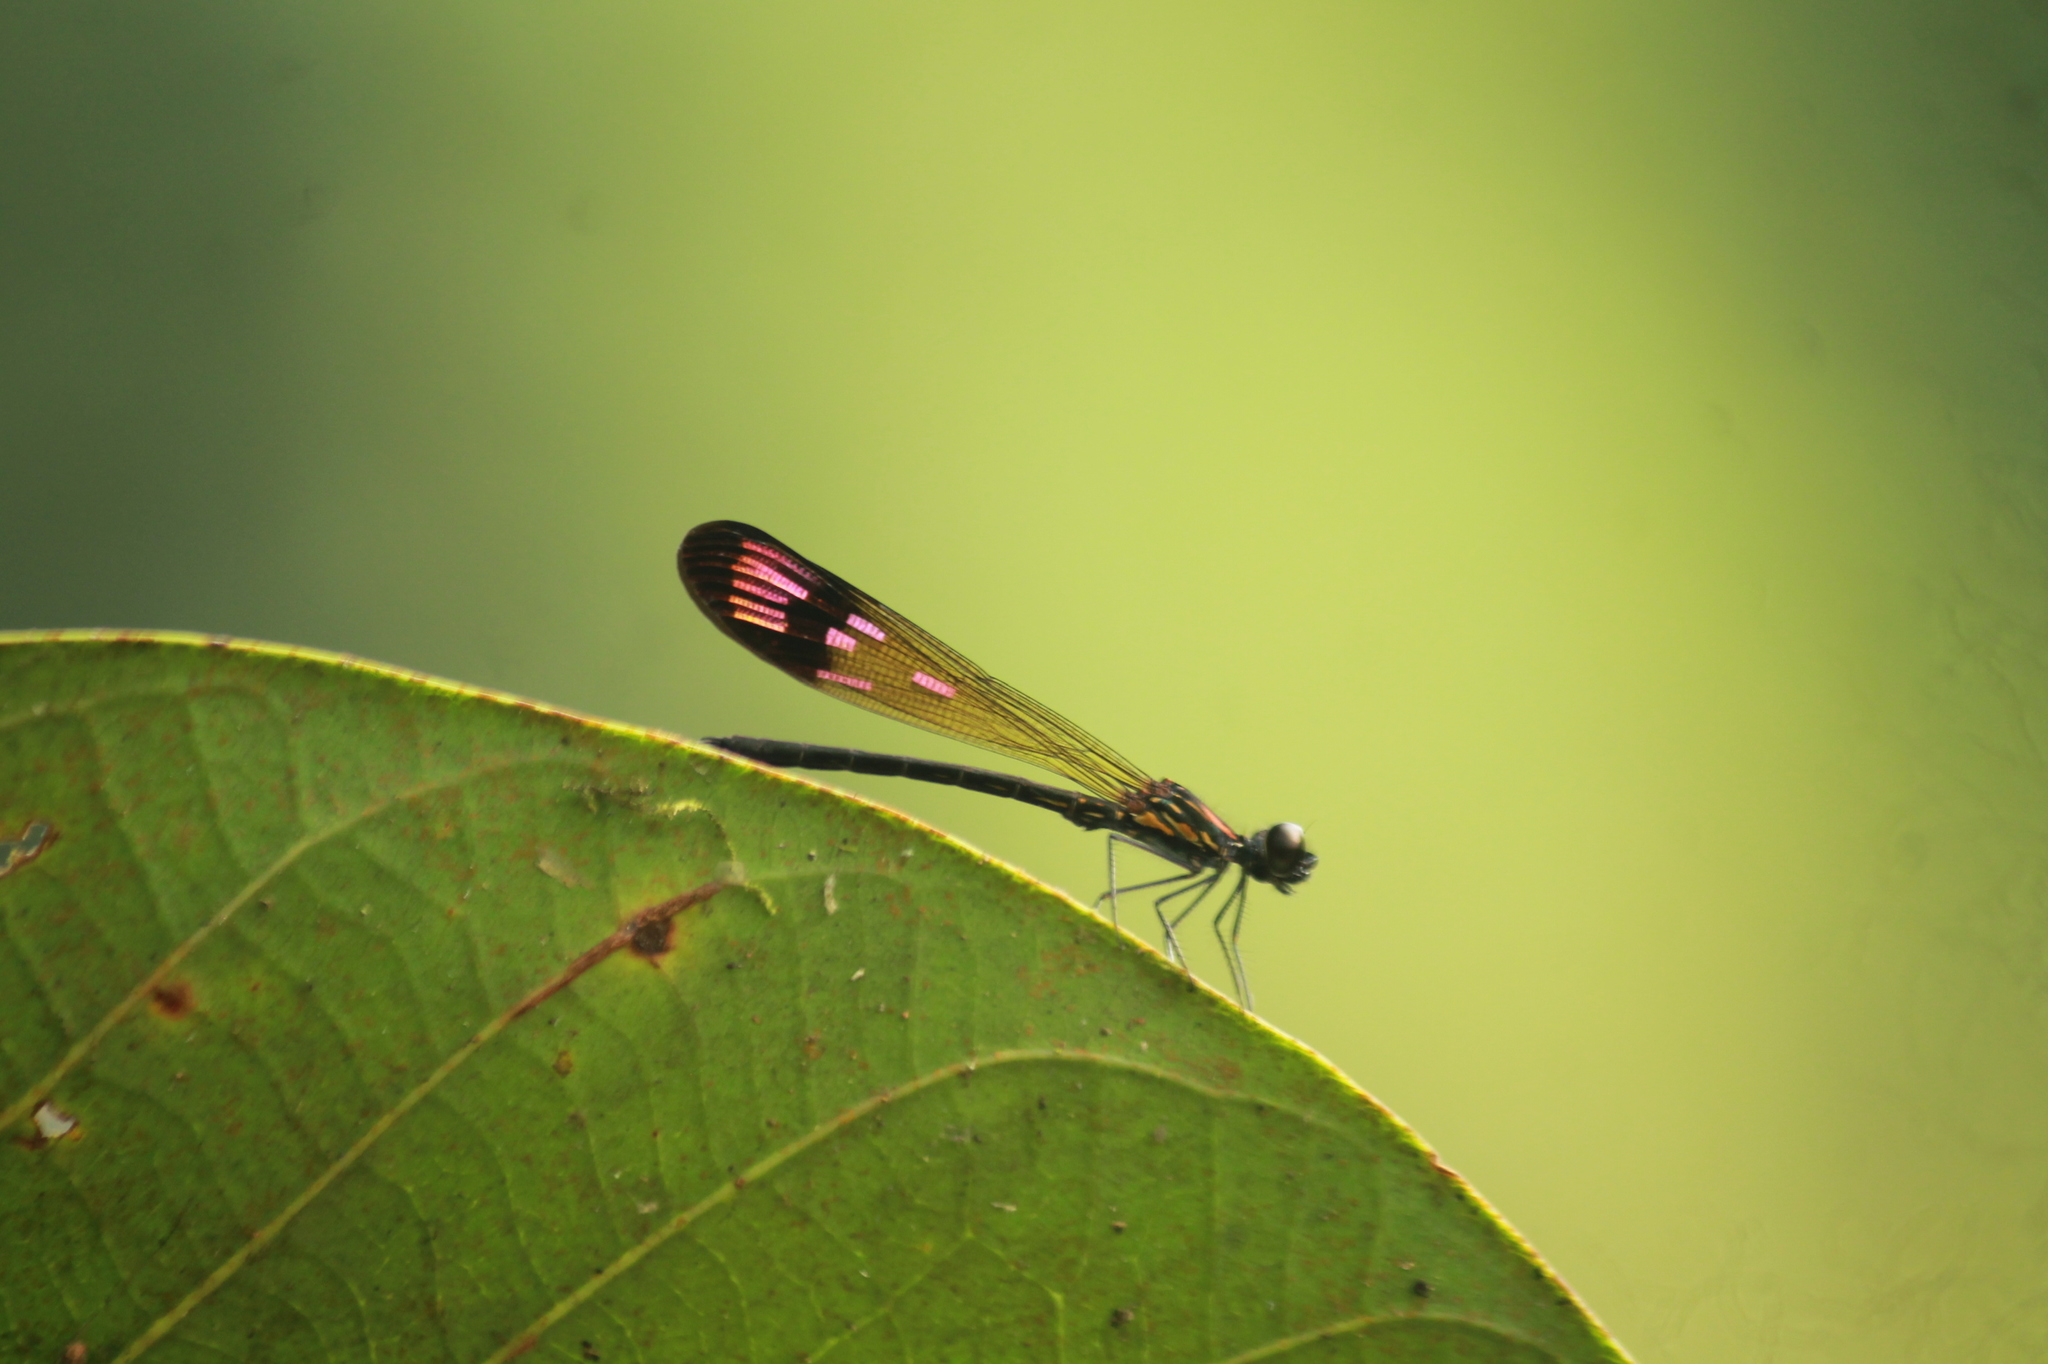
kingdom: Animalia
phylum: Arthropoda
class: Insecta
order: Odonata
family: Chlorocyphidae
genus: Heliocypha
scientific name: Heliocypha bisignata
